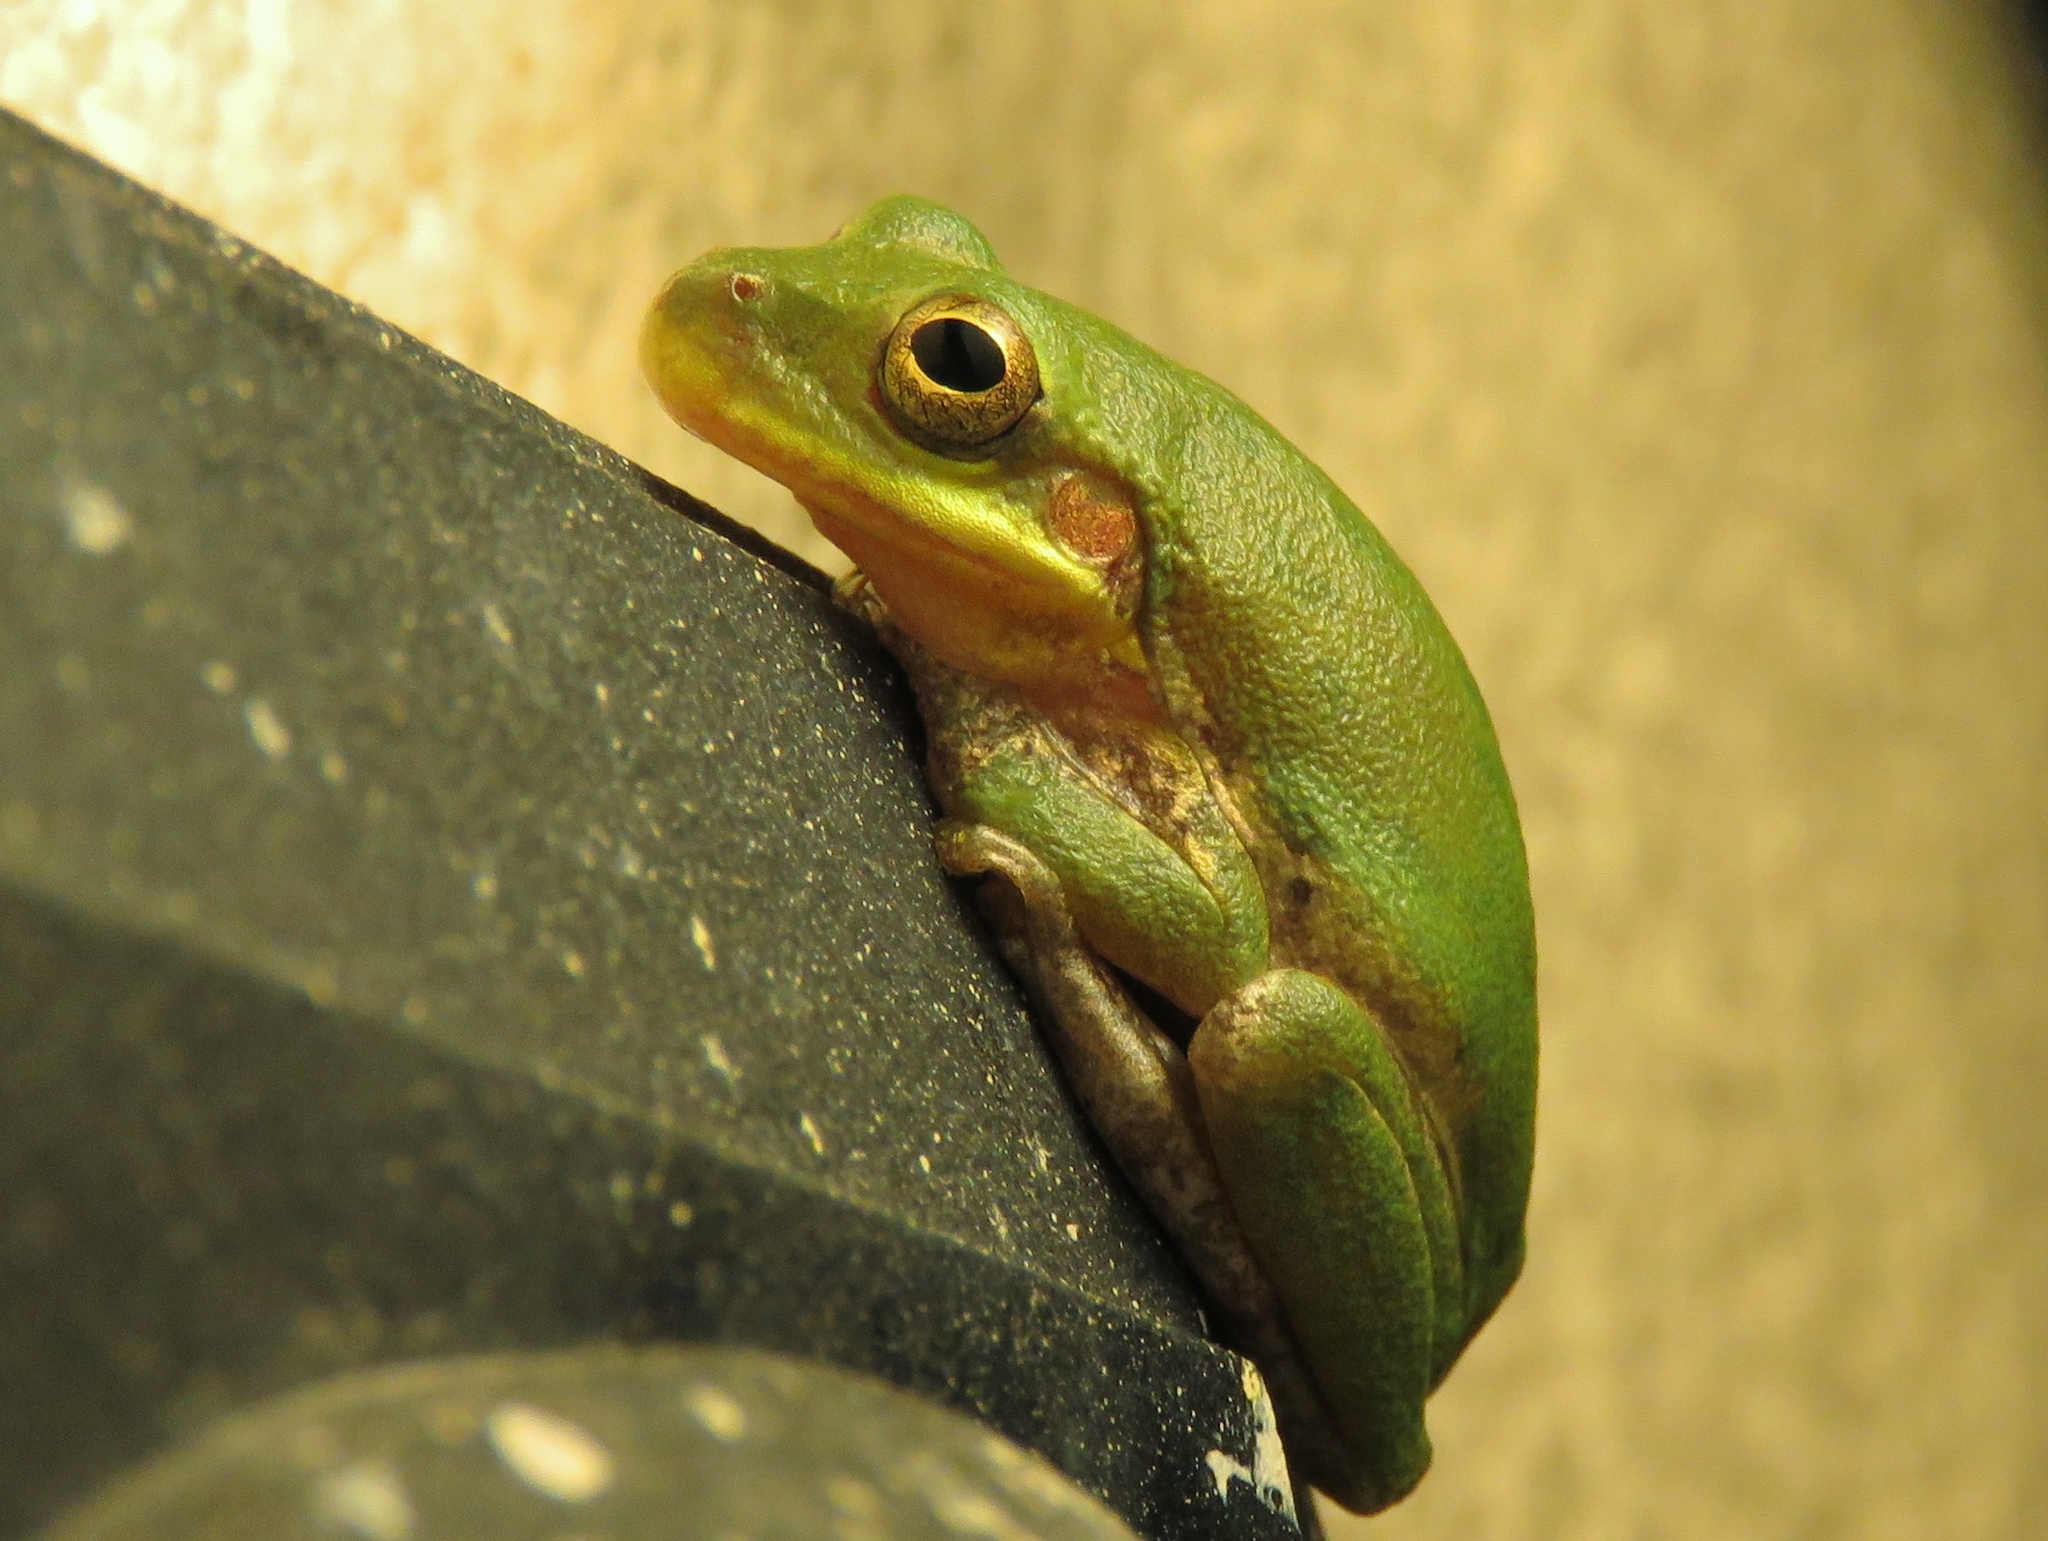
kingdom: Animalia
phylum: Chordata
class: Amphibia
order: Anura
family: Hylidae
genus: Dryophytes
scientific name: Dryophytes squirellus
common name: Squirrel treefrog
